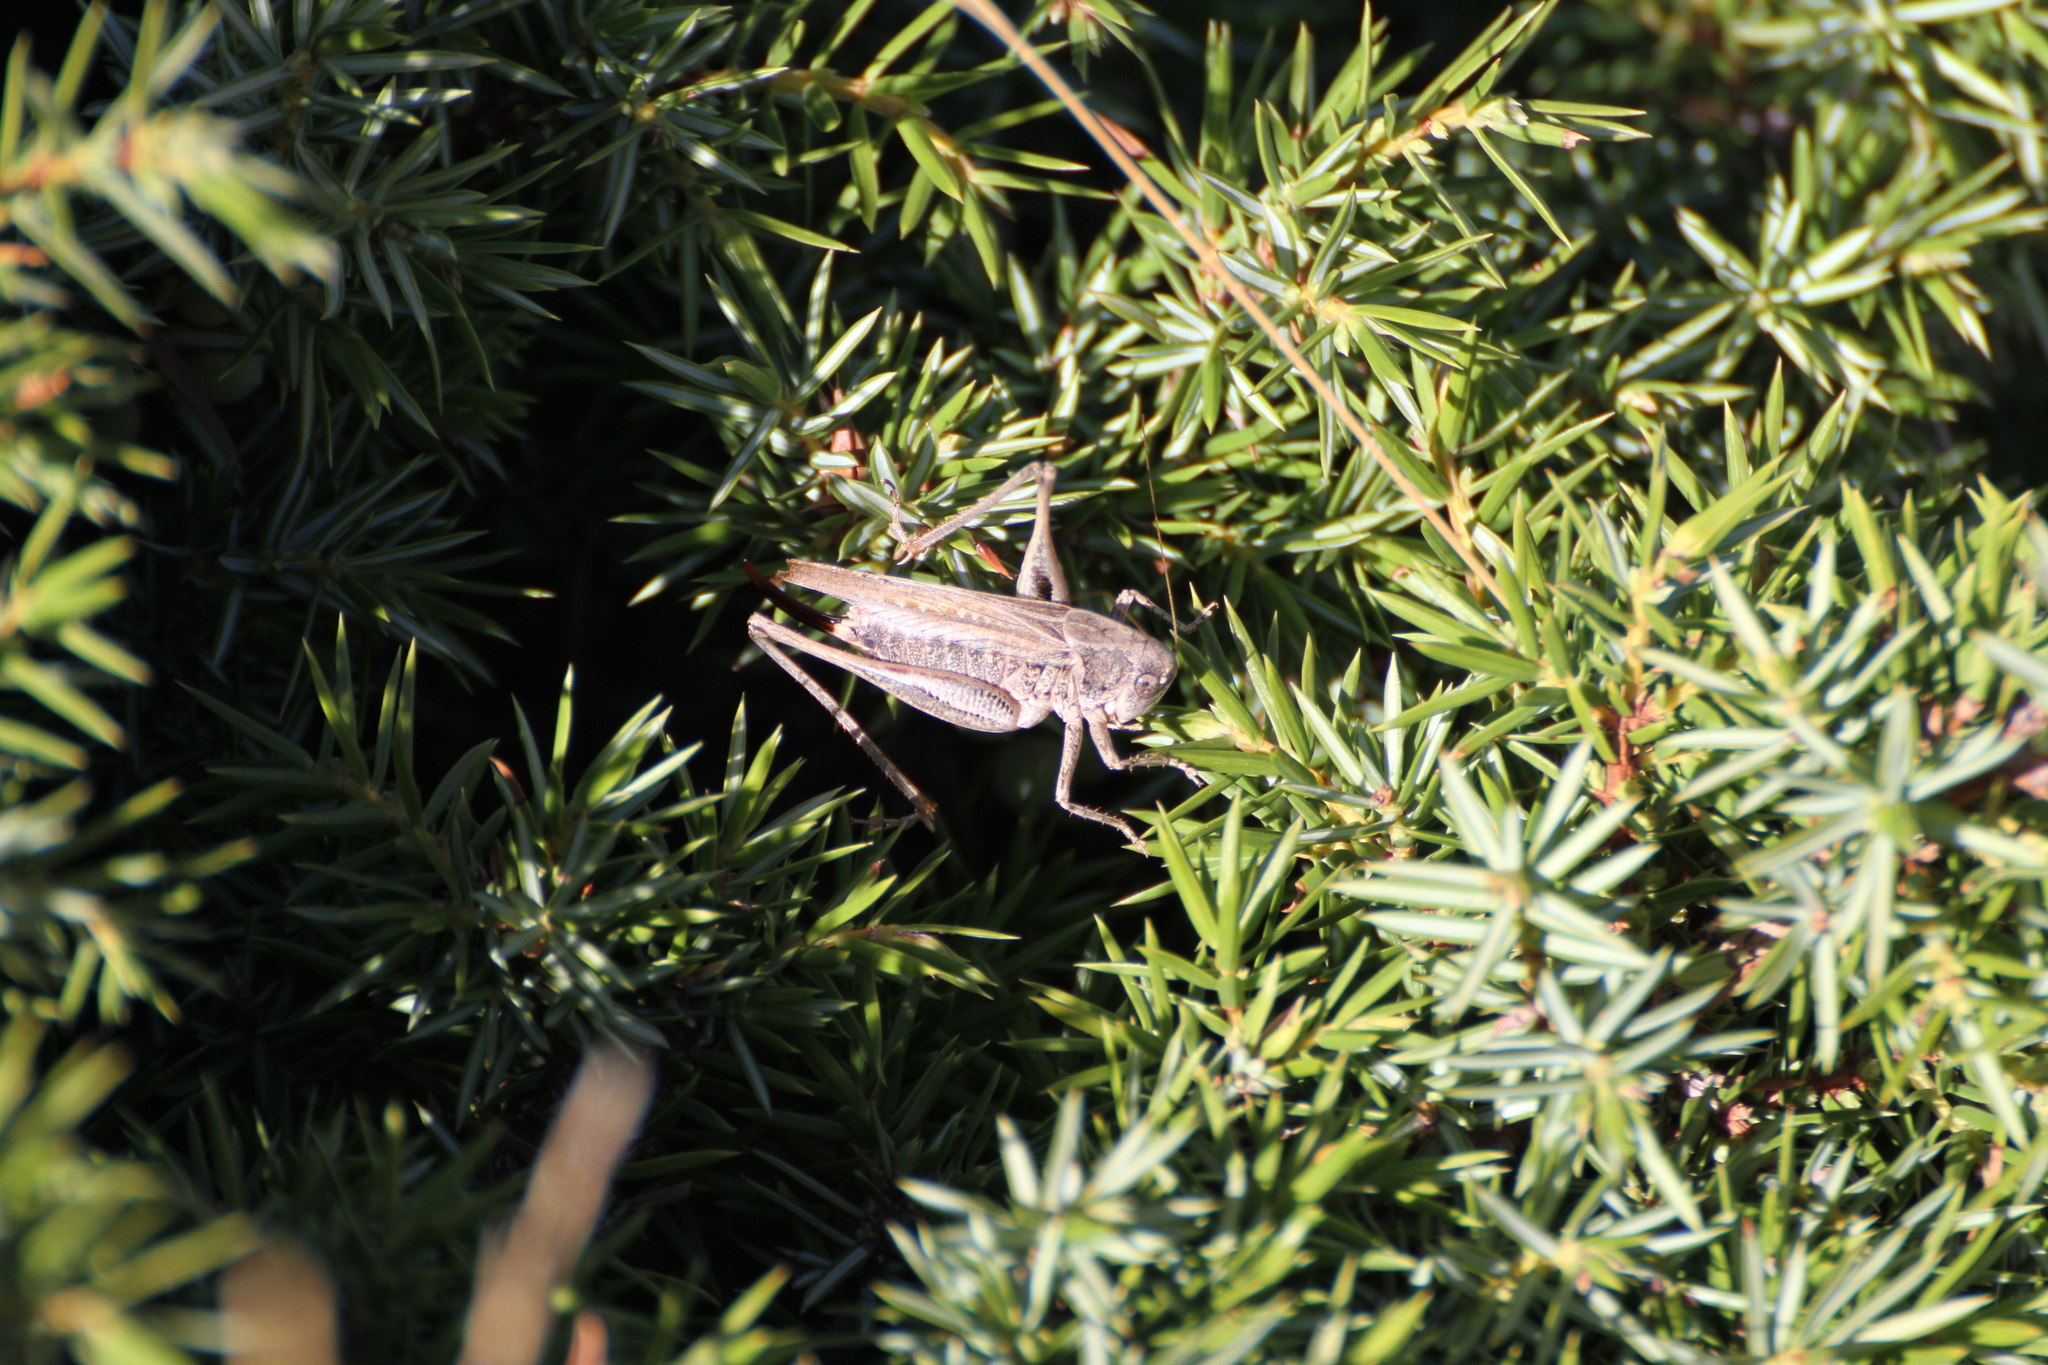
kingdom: Animalia
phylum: Arthropoda
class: Insecta
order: Orthoptera
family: Tettigoniidae
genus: Platycleis
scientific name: Platycleis albopunctata
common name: Grey bush-cricket
